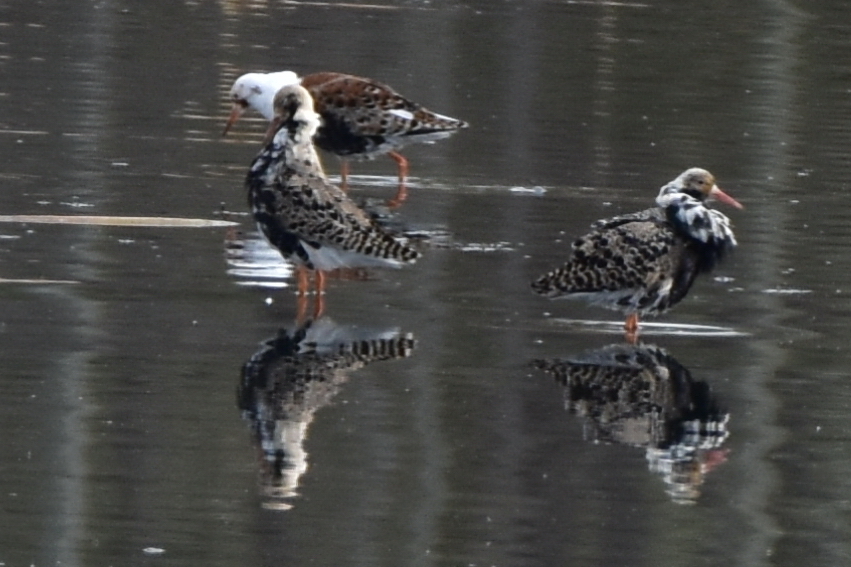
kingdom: Animalia
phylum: Chordata
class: Aves
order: Charadriiformes
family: Scolopacidae
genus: Calidris
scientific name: Calidris pugnax
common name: Ruff
